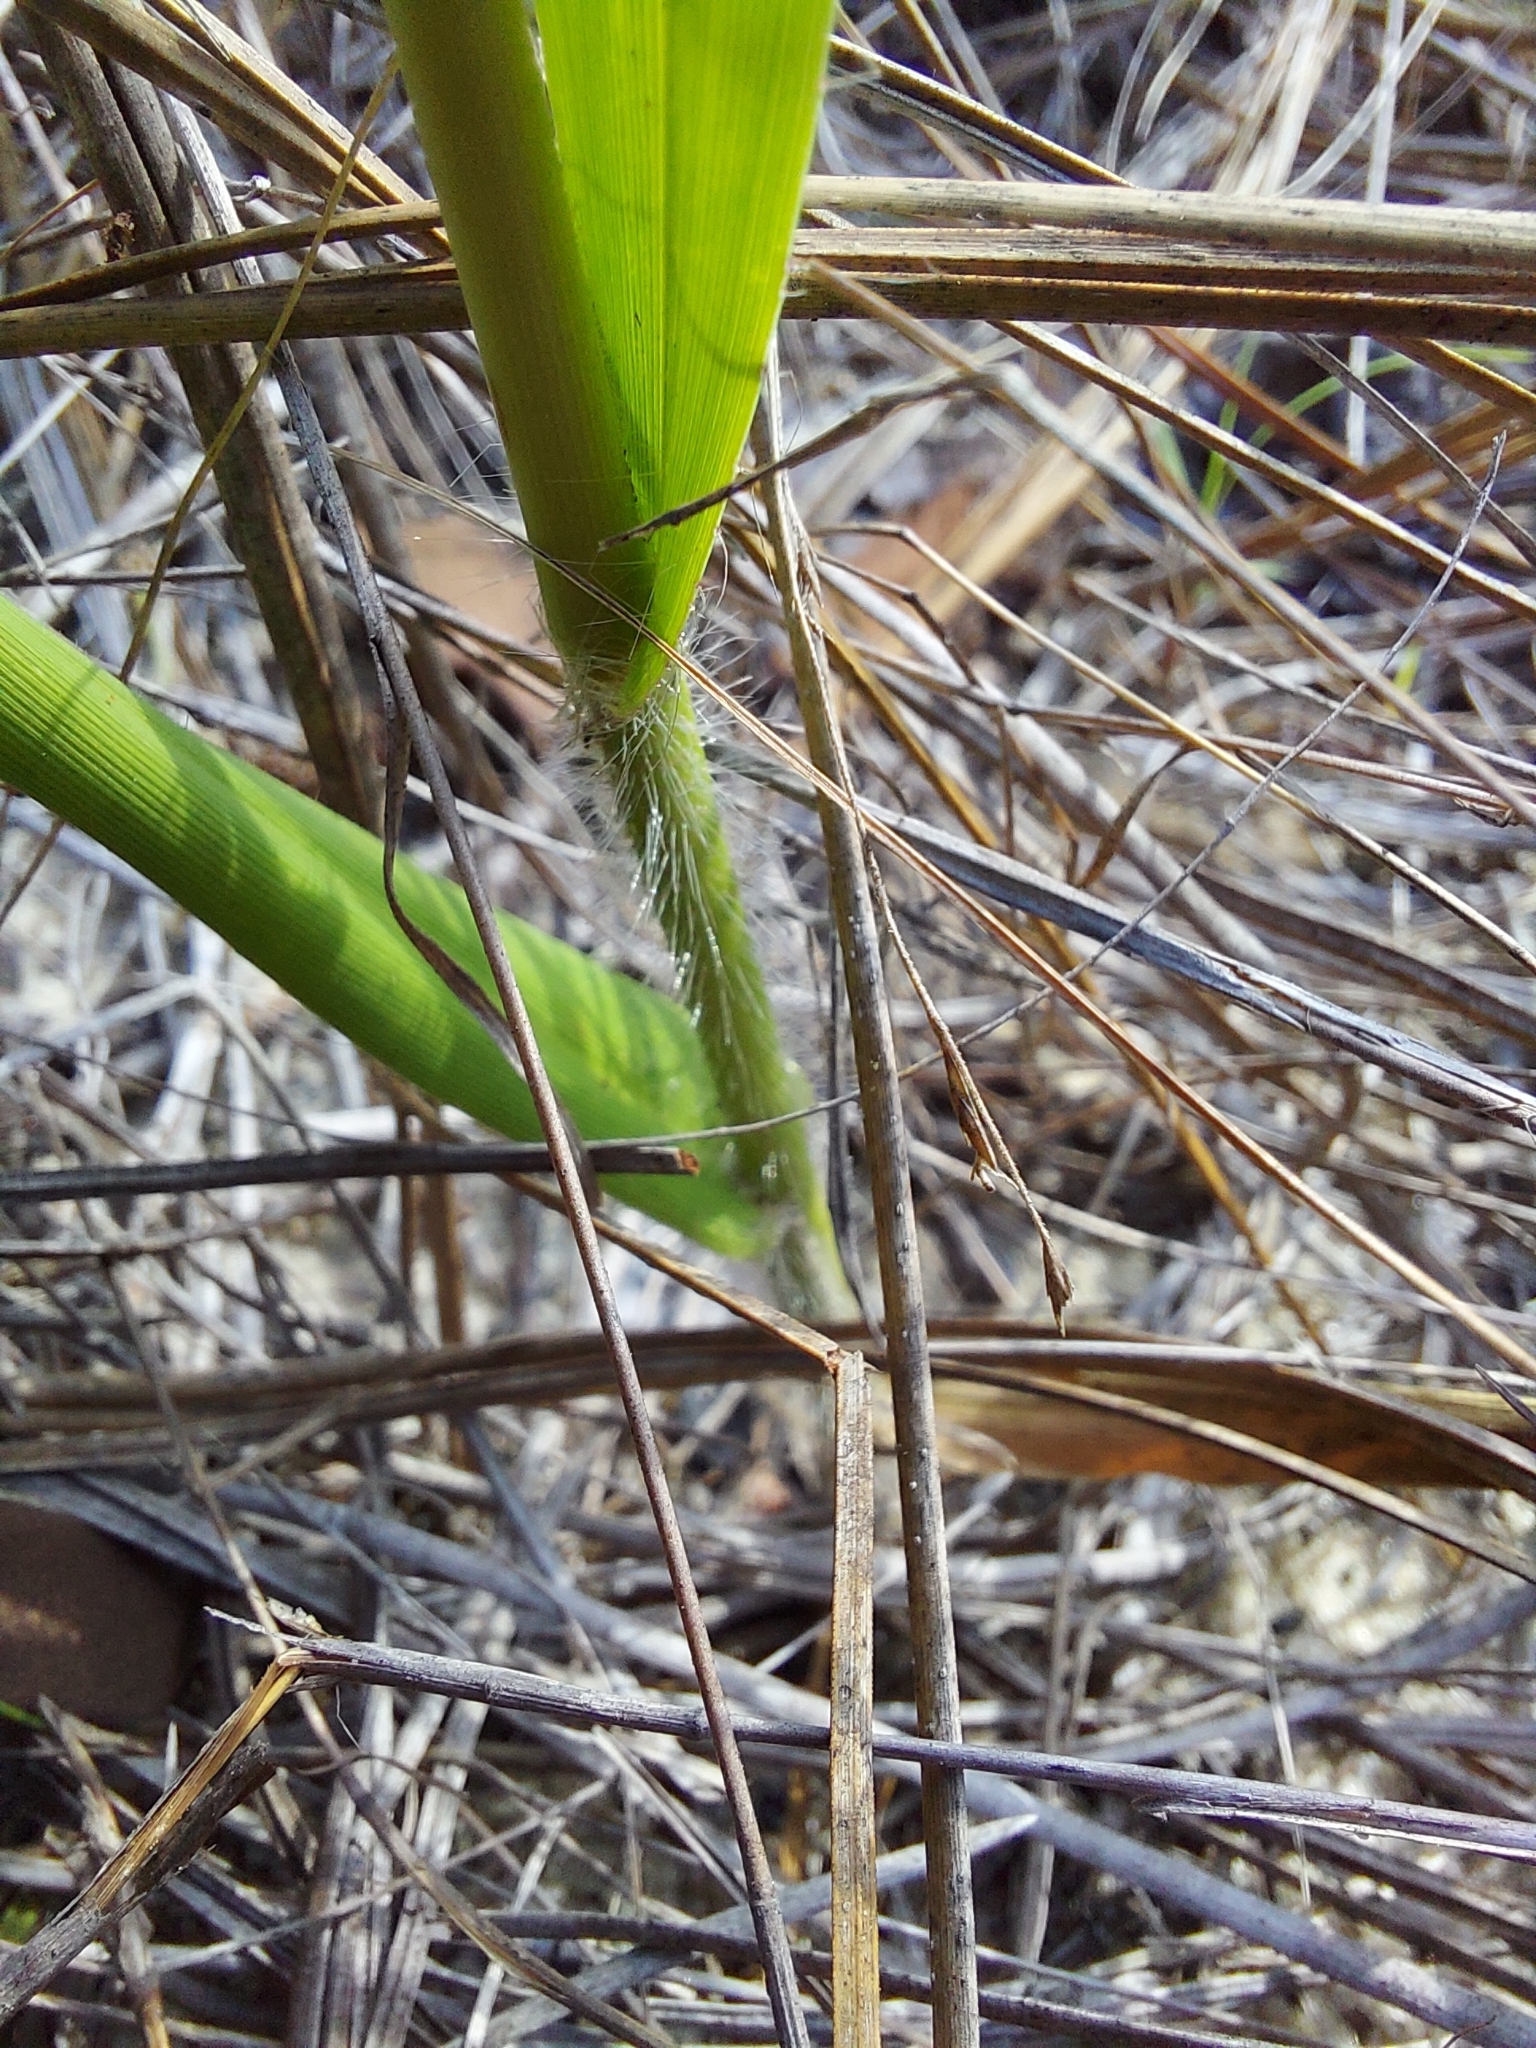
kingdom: Plantae
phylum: Tracheophyta
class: Liliopsida
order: Poales
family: Poaceae
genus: Panicum
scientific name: Panicum hemitomon
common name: Maidencane
